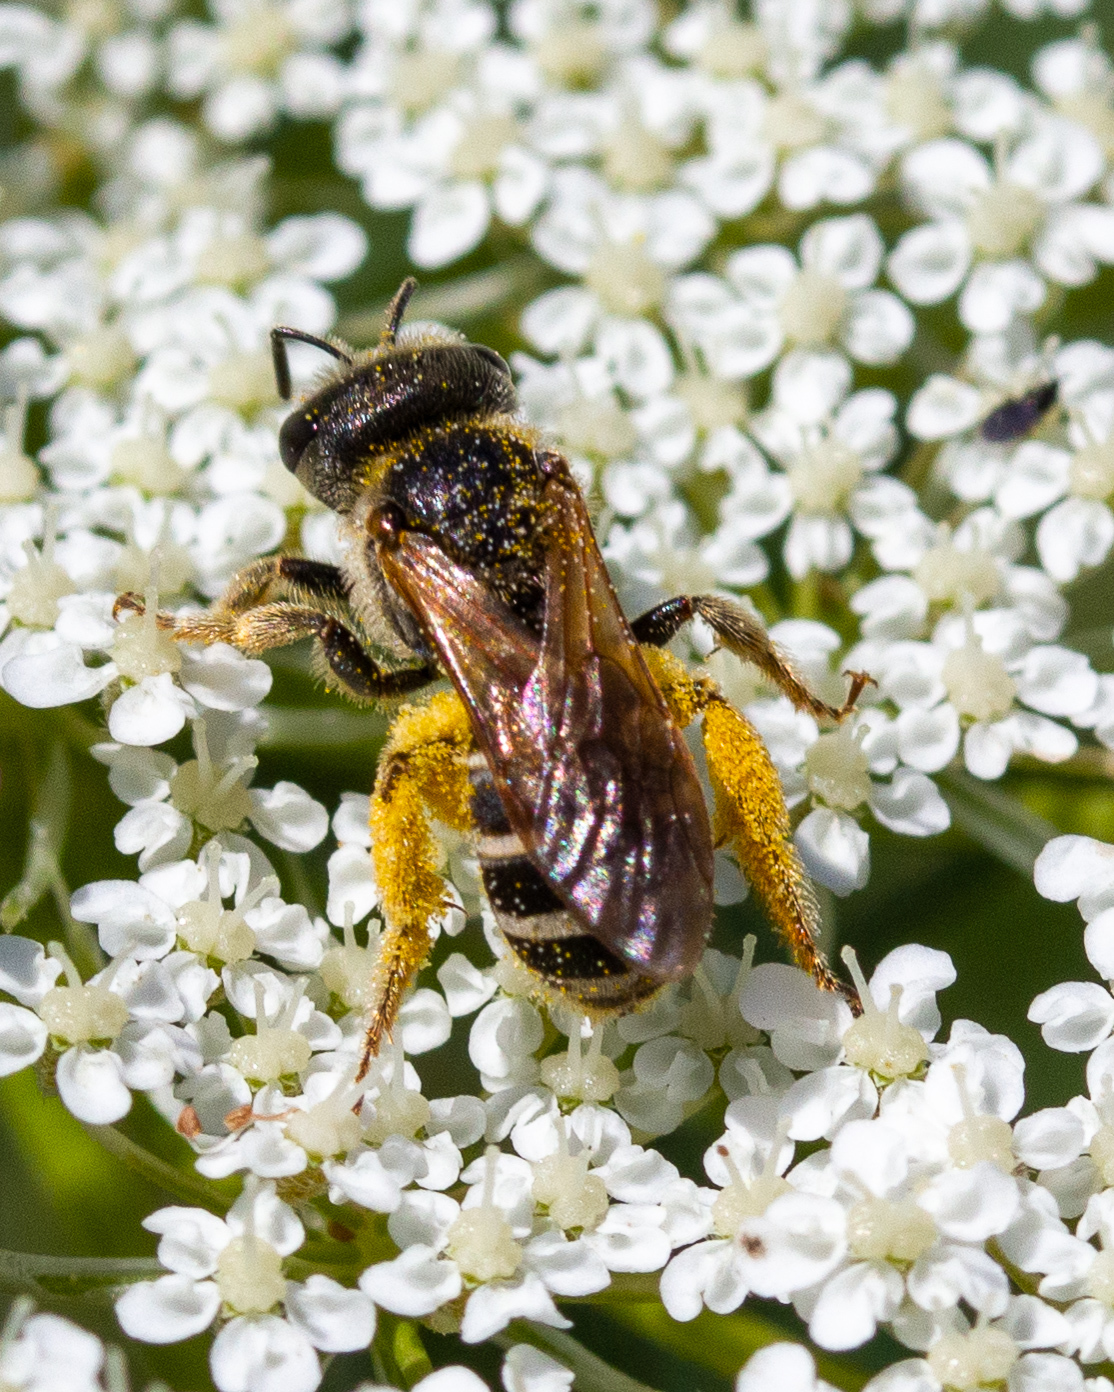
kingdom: Animalia
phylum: Arthropoda
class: Insecta
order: Hymenoptera
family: Halictidae
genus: Halictus
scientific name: Halictus ligatus
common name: Ligated furrow bee
